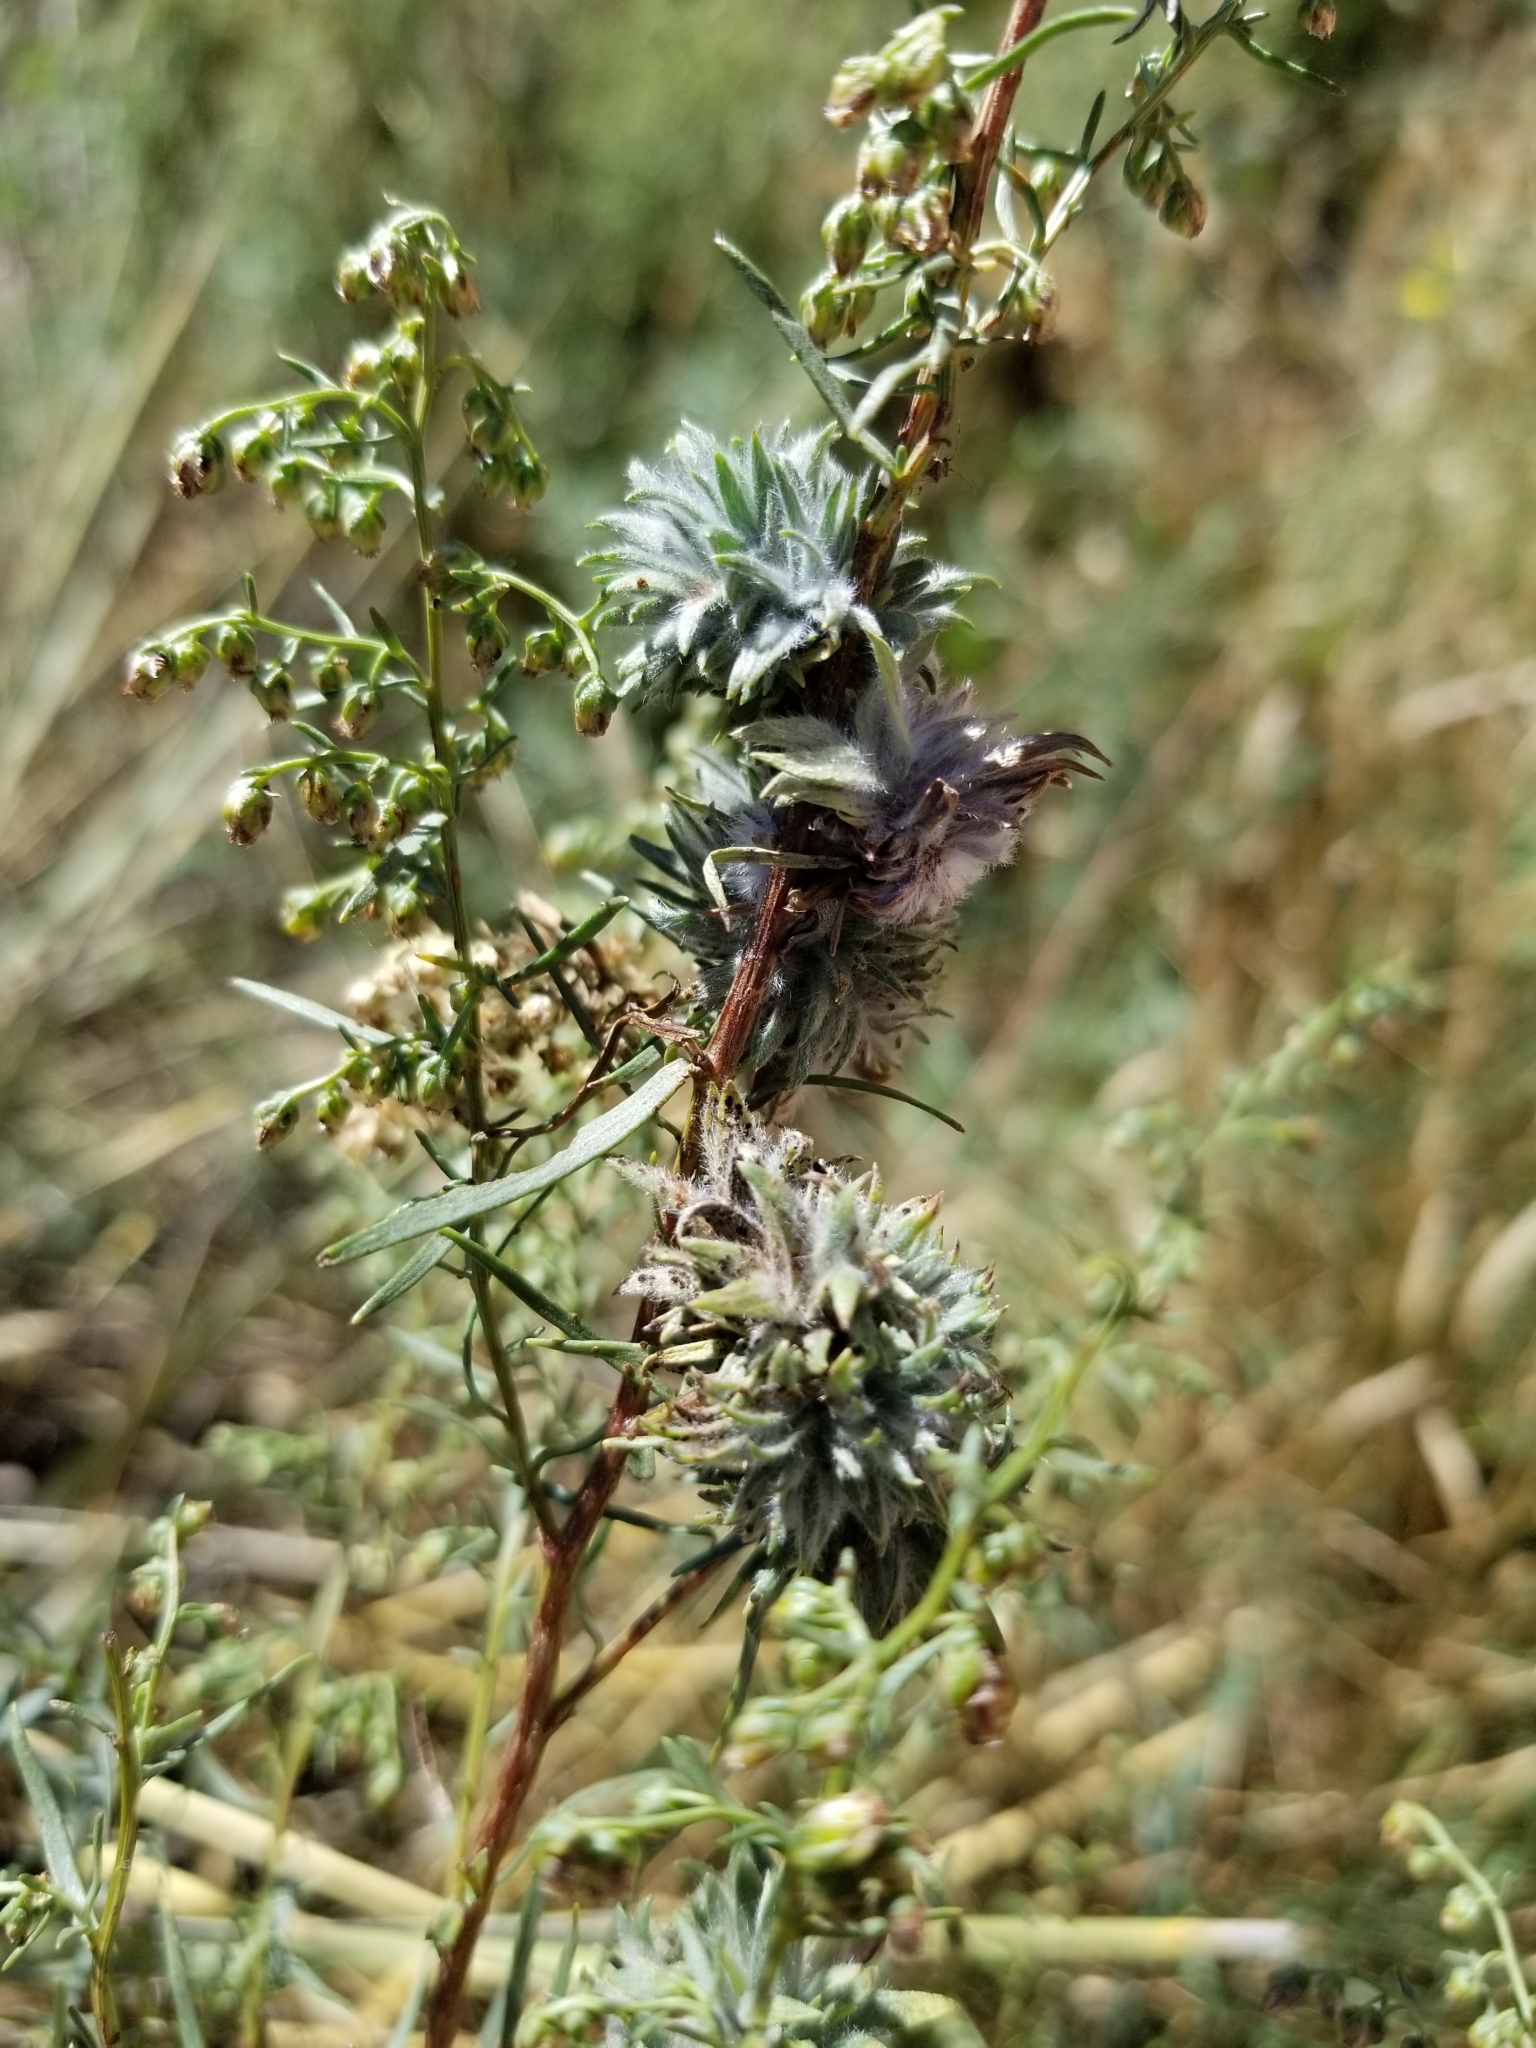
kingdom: Plantae
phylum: Tracheophyta
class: Magnoliopsida
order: Boraginales
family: Boraginaceae
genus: Cynoglossum
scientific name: Cynoglossum officinale
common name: Hound's-tongue
